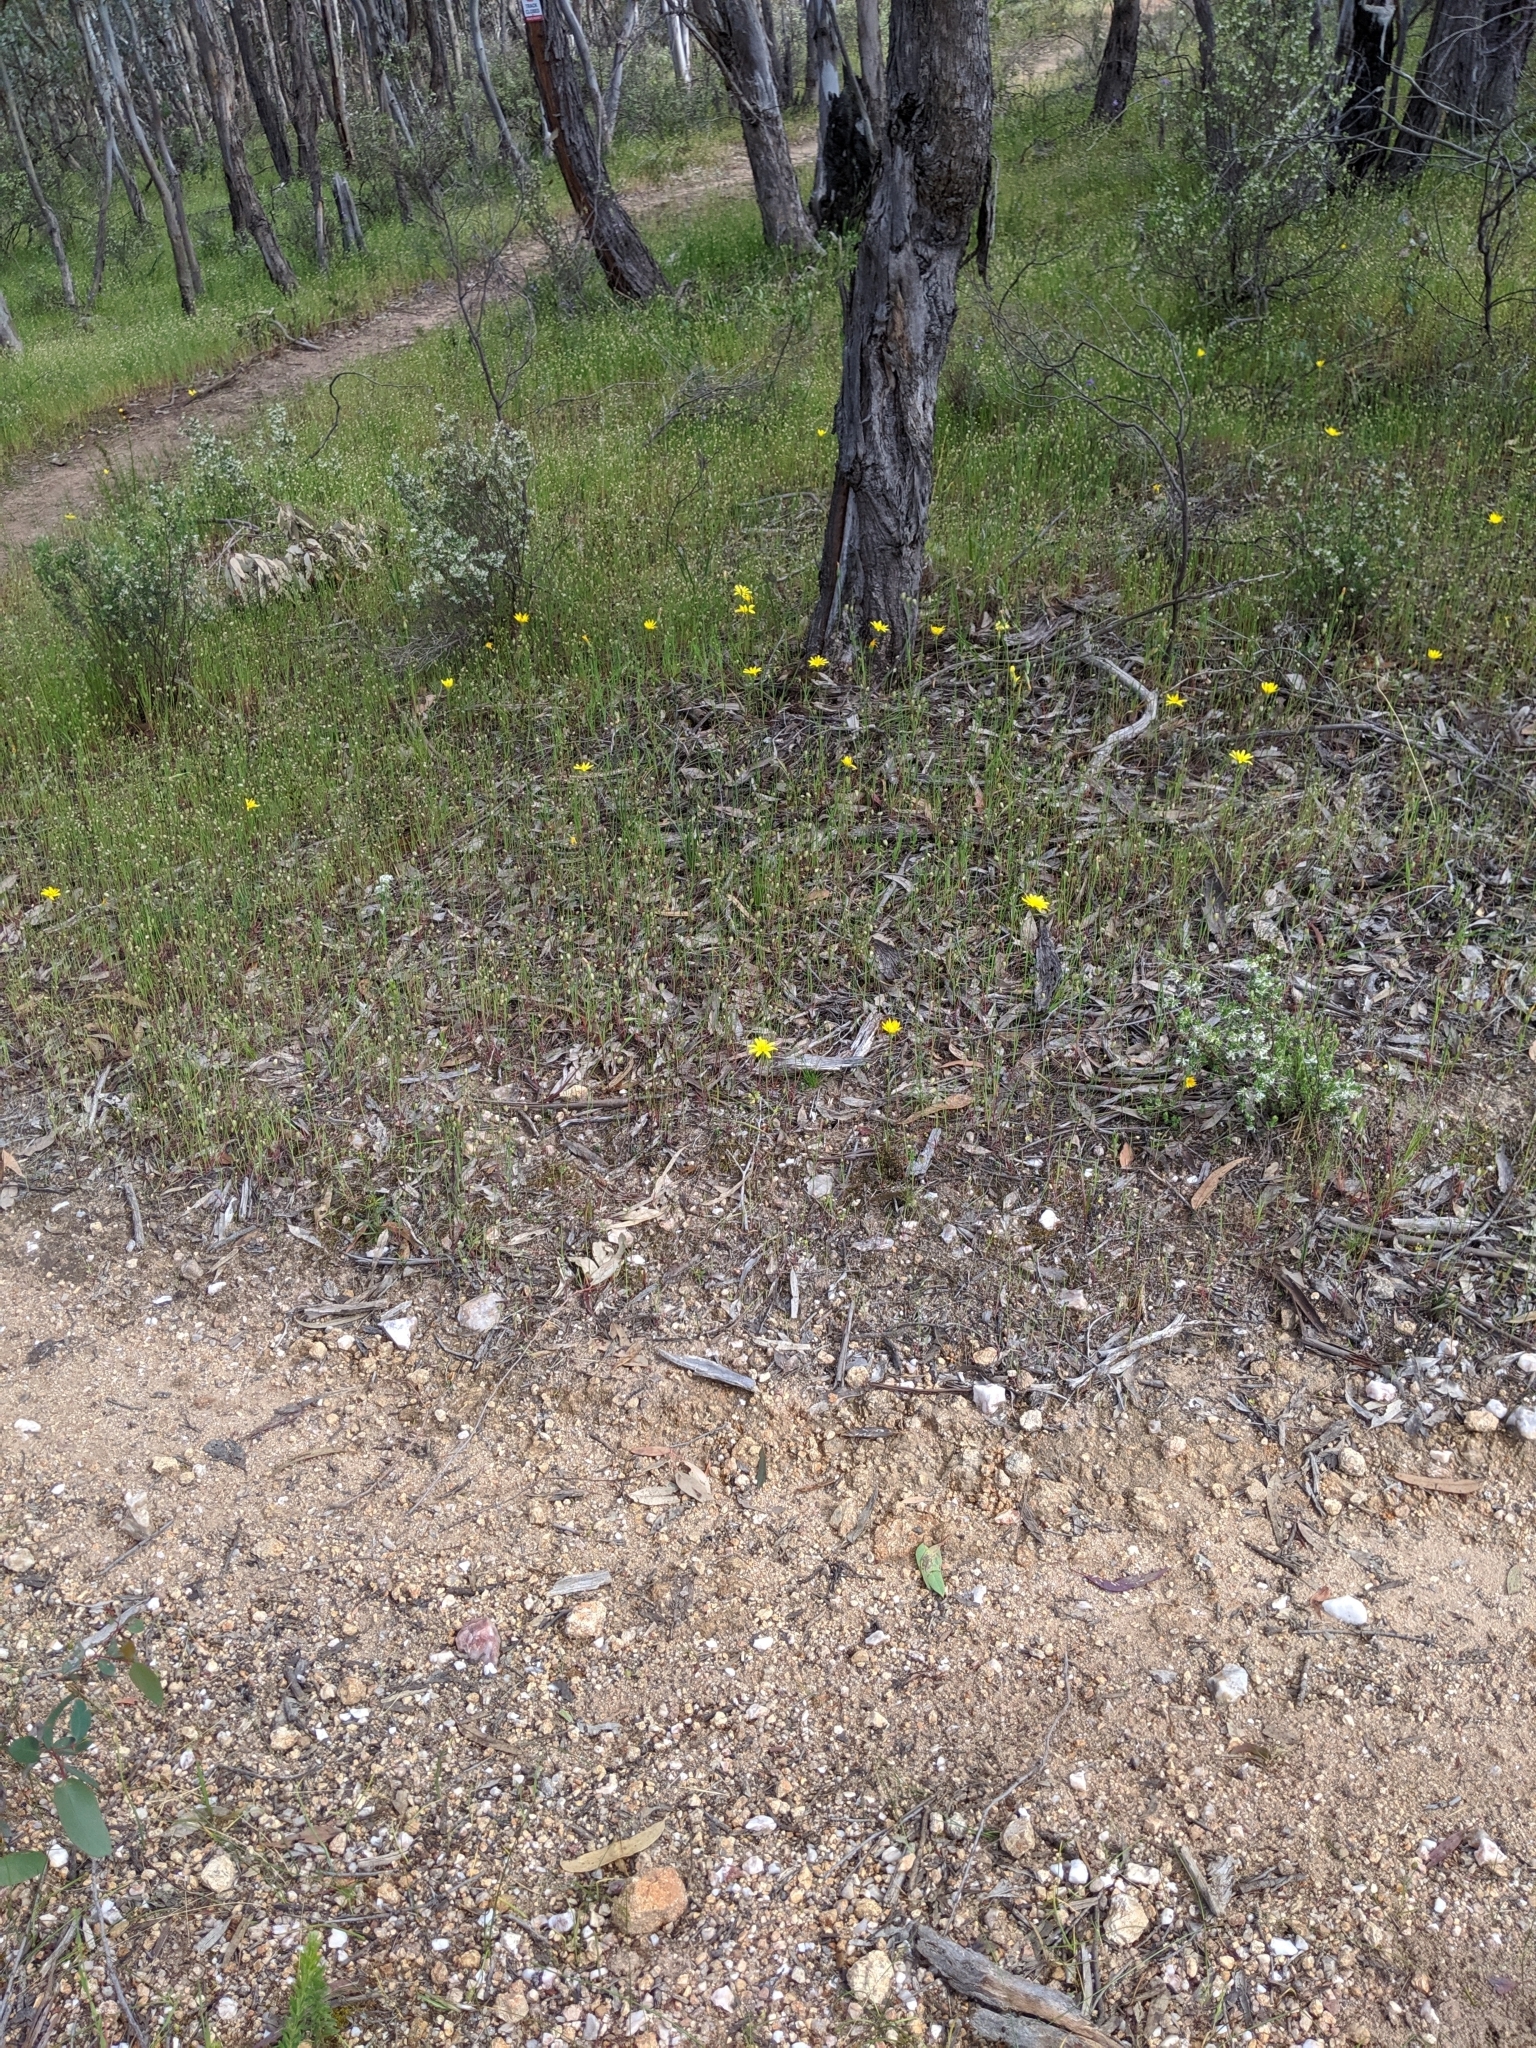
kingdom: Plantae
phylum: Tracheophyta
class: Magnoliopsida
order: Asterales
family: Asteraceae
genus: Microseris
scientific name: Microseris lanceolata
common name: Yam daisy
